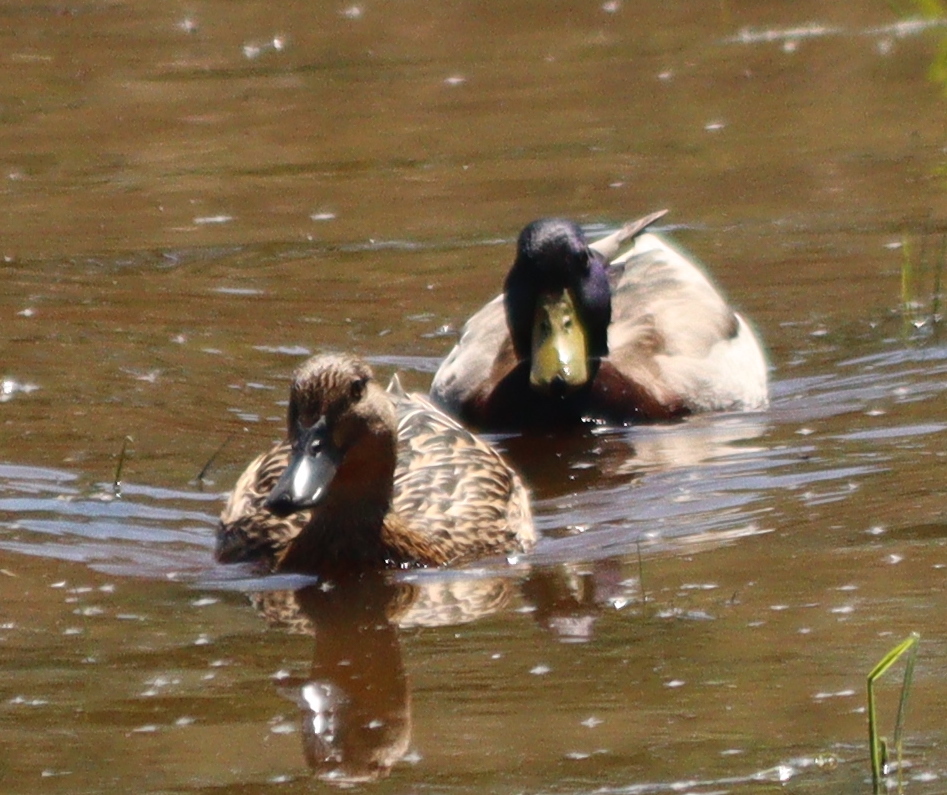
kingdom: Animalia
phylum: Chordata
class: Aves
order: Anseriformes
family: Anatidae
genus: Anas
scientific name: Anas platyrhynchos
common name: Mallard
